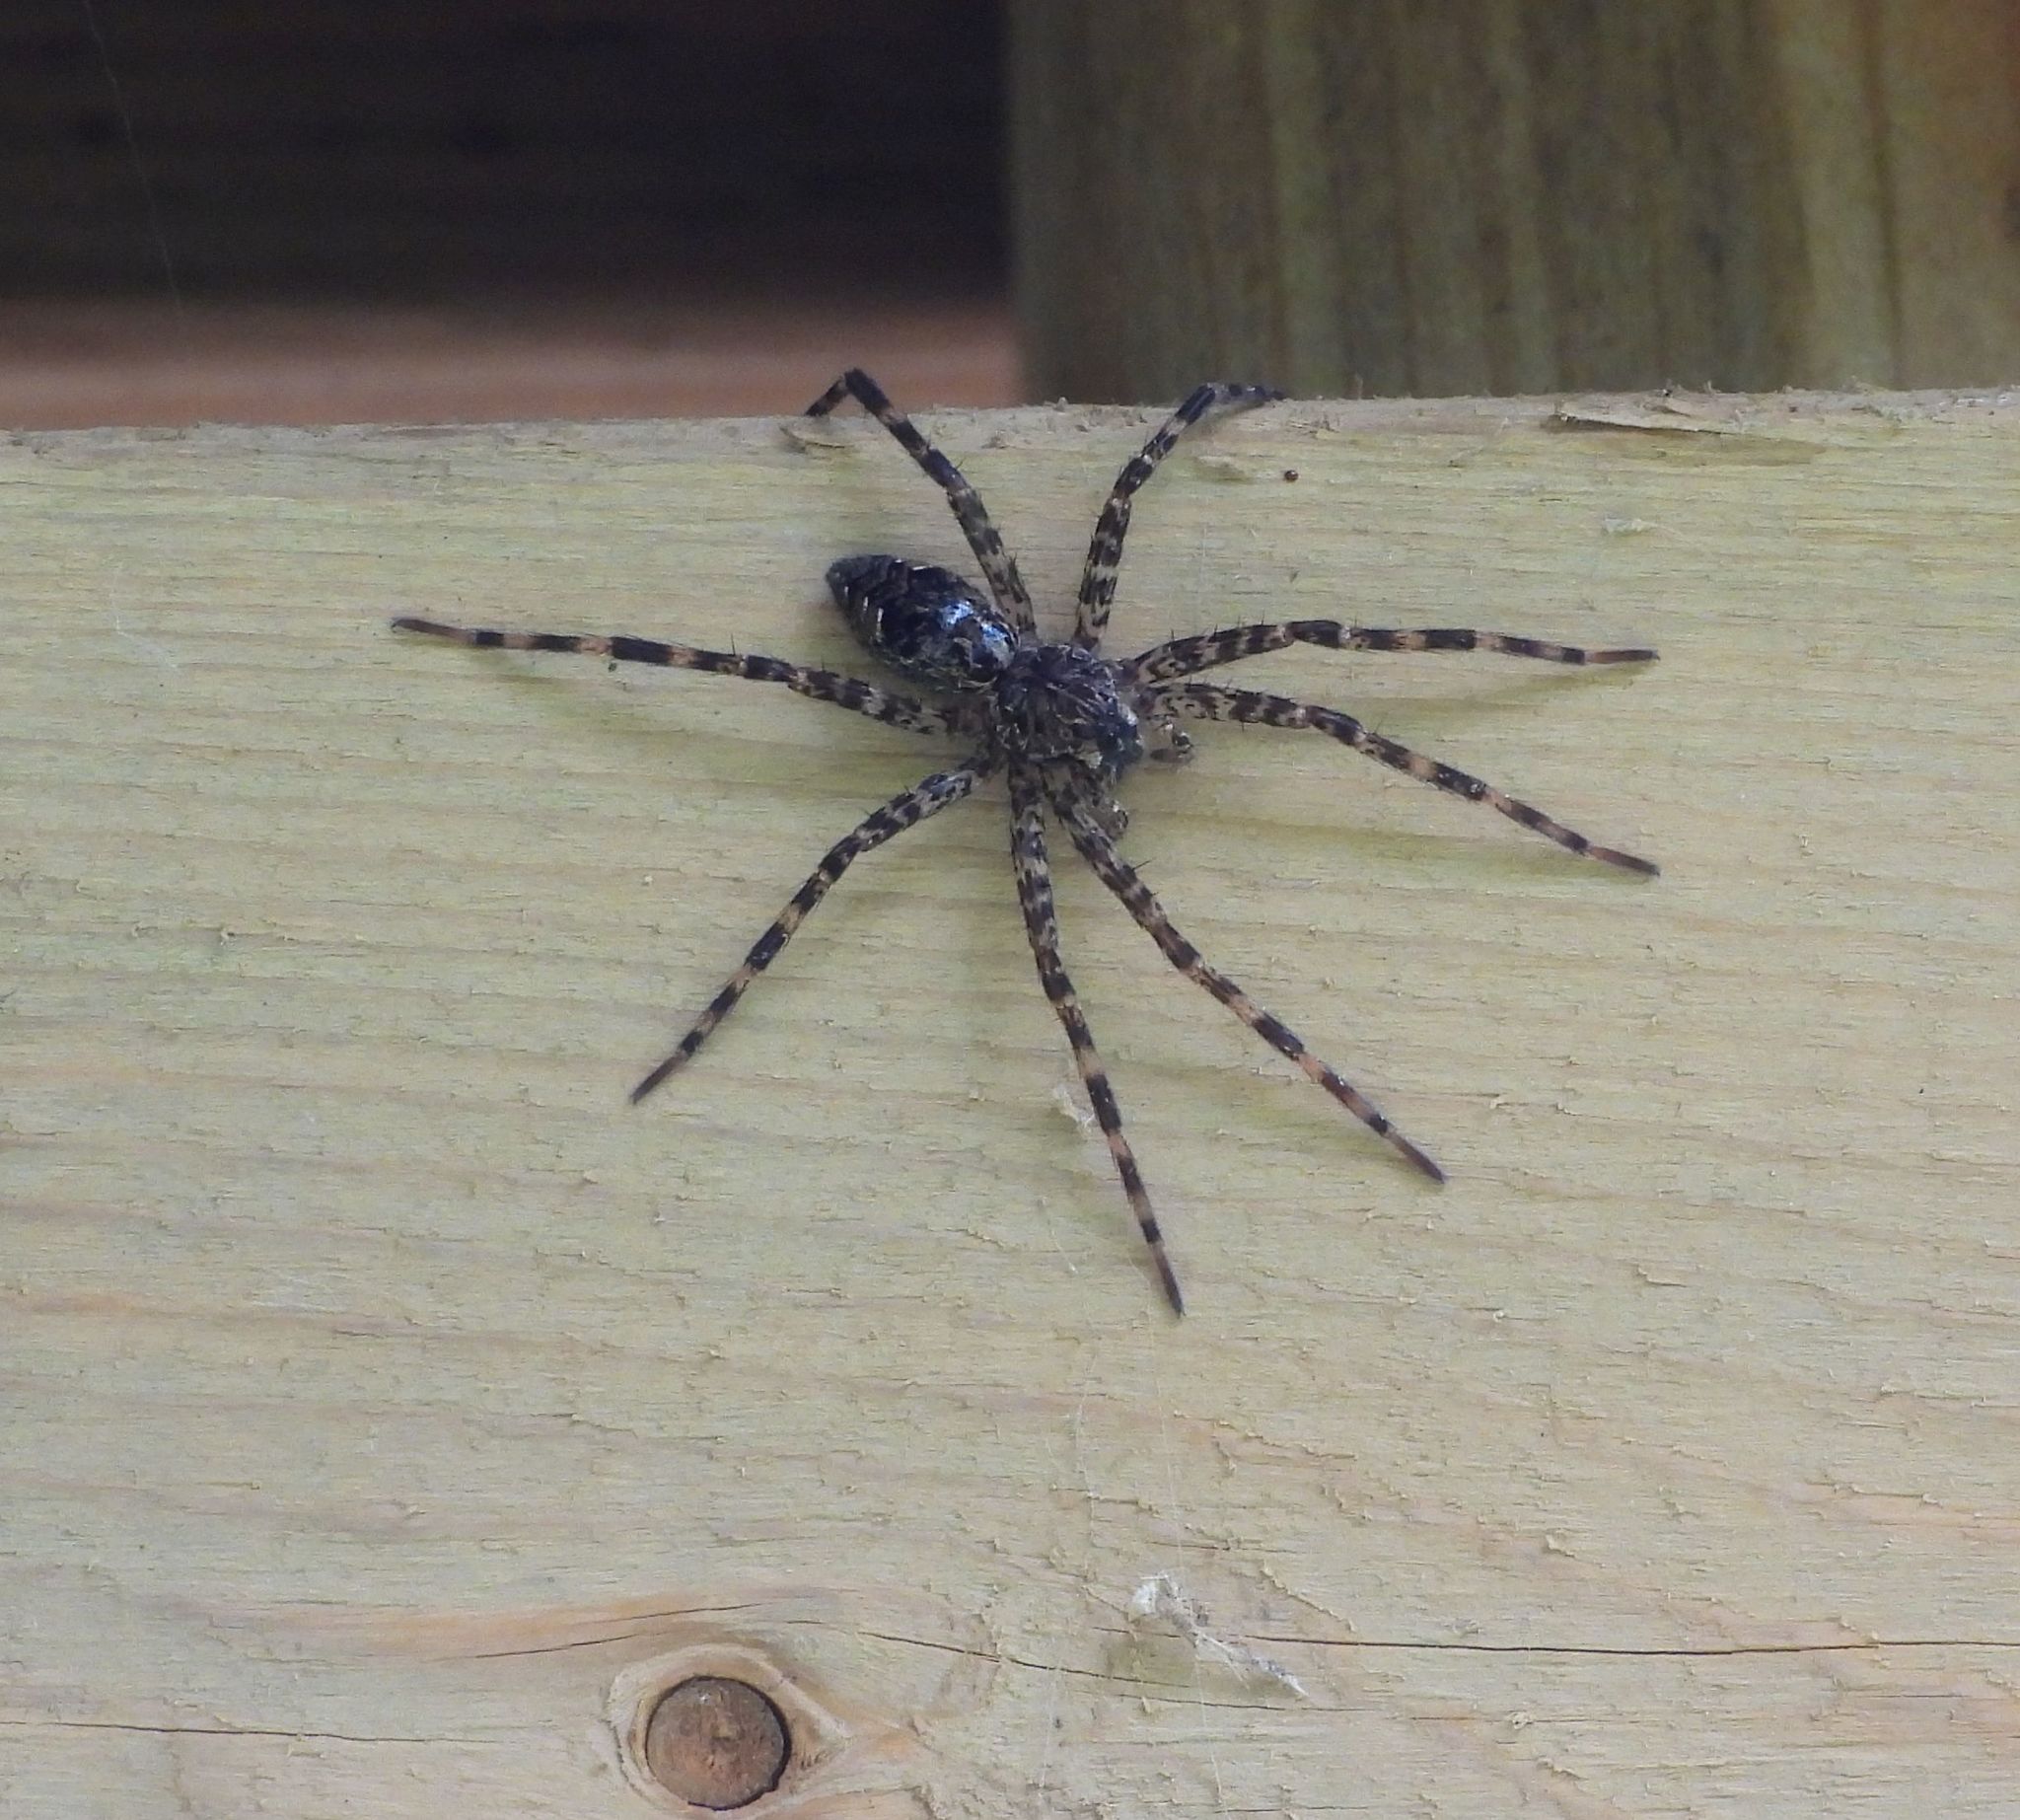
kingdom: Animalia
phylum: Arthropoda
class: Arachnida
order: Araneae
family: Pisauridae
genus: Dolomedes
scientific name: Dolomedes tenebrosus
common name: Dark fishing spider
